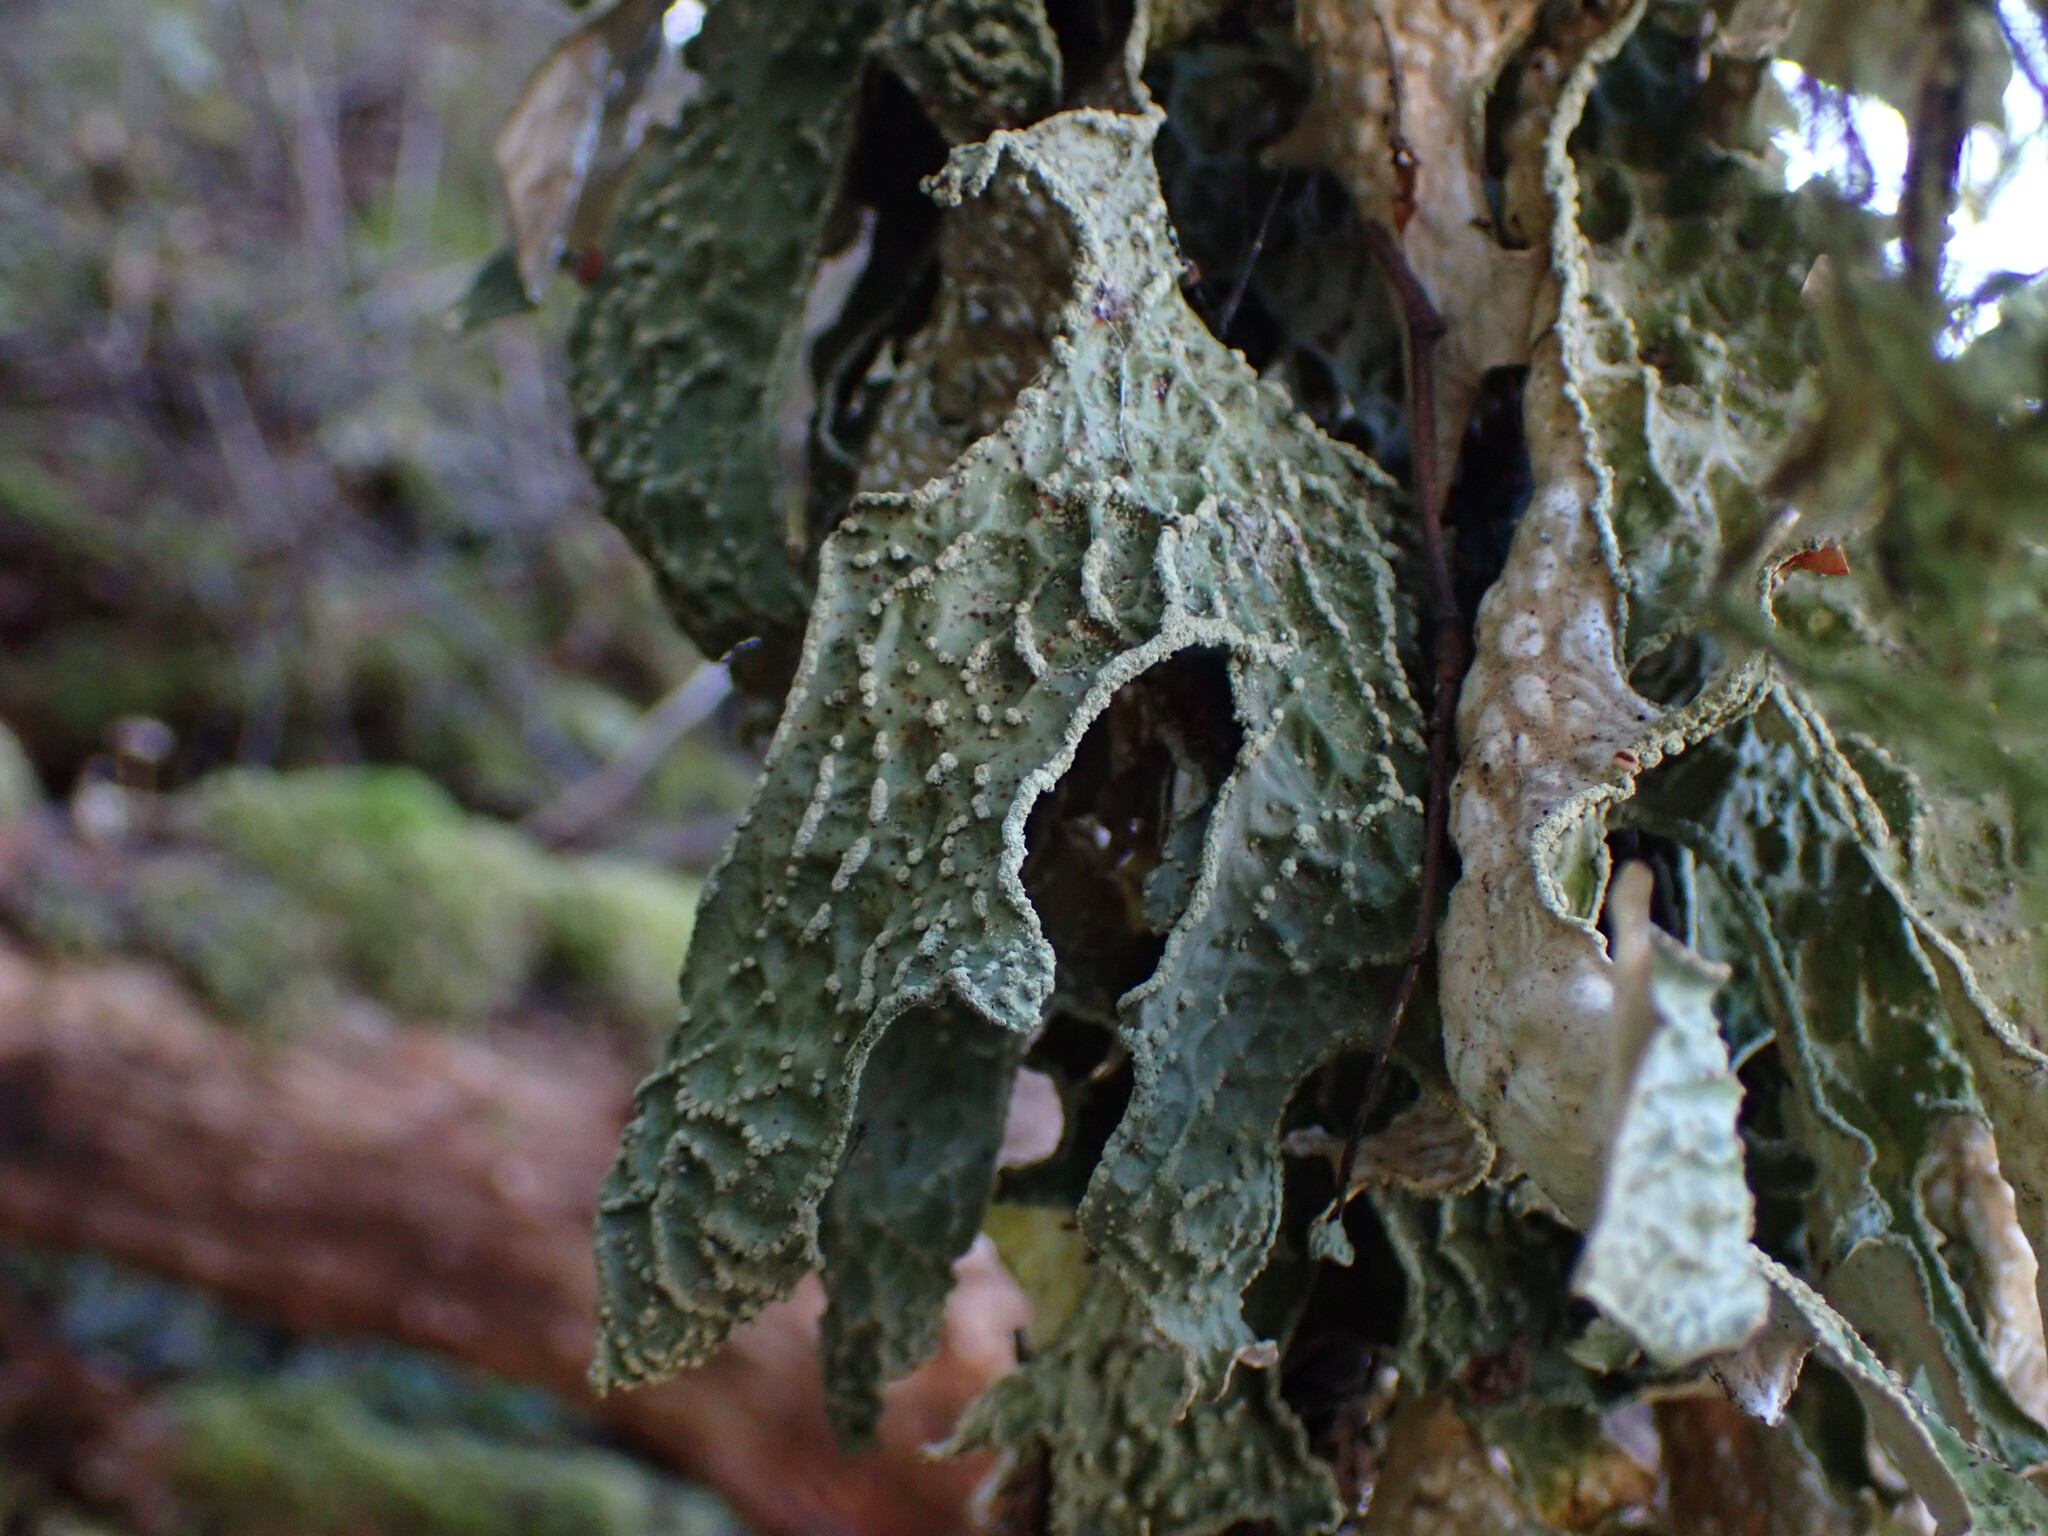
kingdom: Fungi
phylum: Ascomycota
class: Lecanoromycetes
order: Peltigerales
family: Lobariaceae
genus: Lobaria
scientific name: Lobaria pulmonaria
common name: Lungwort
